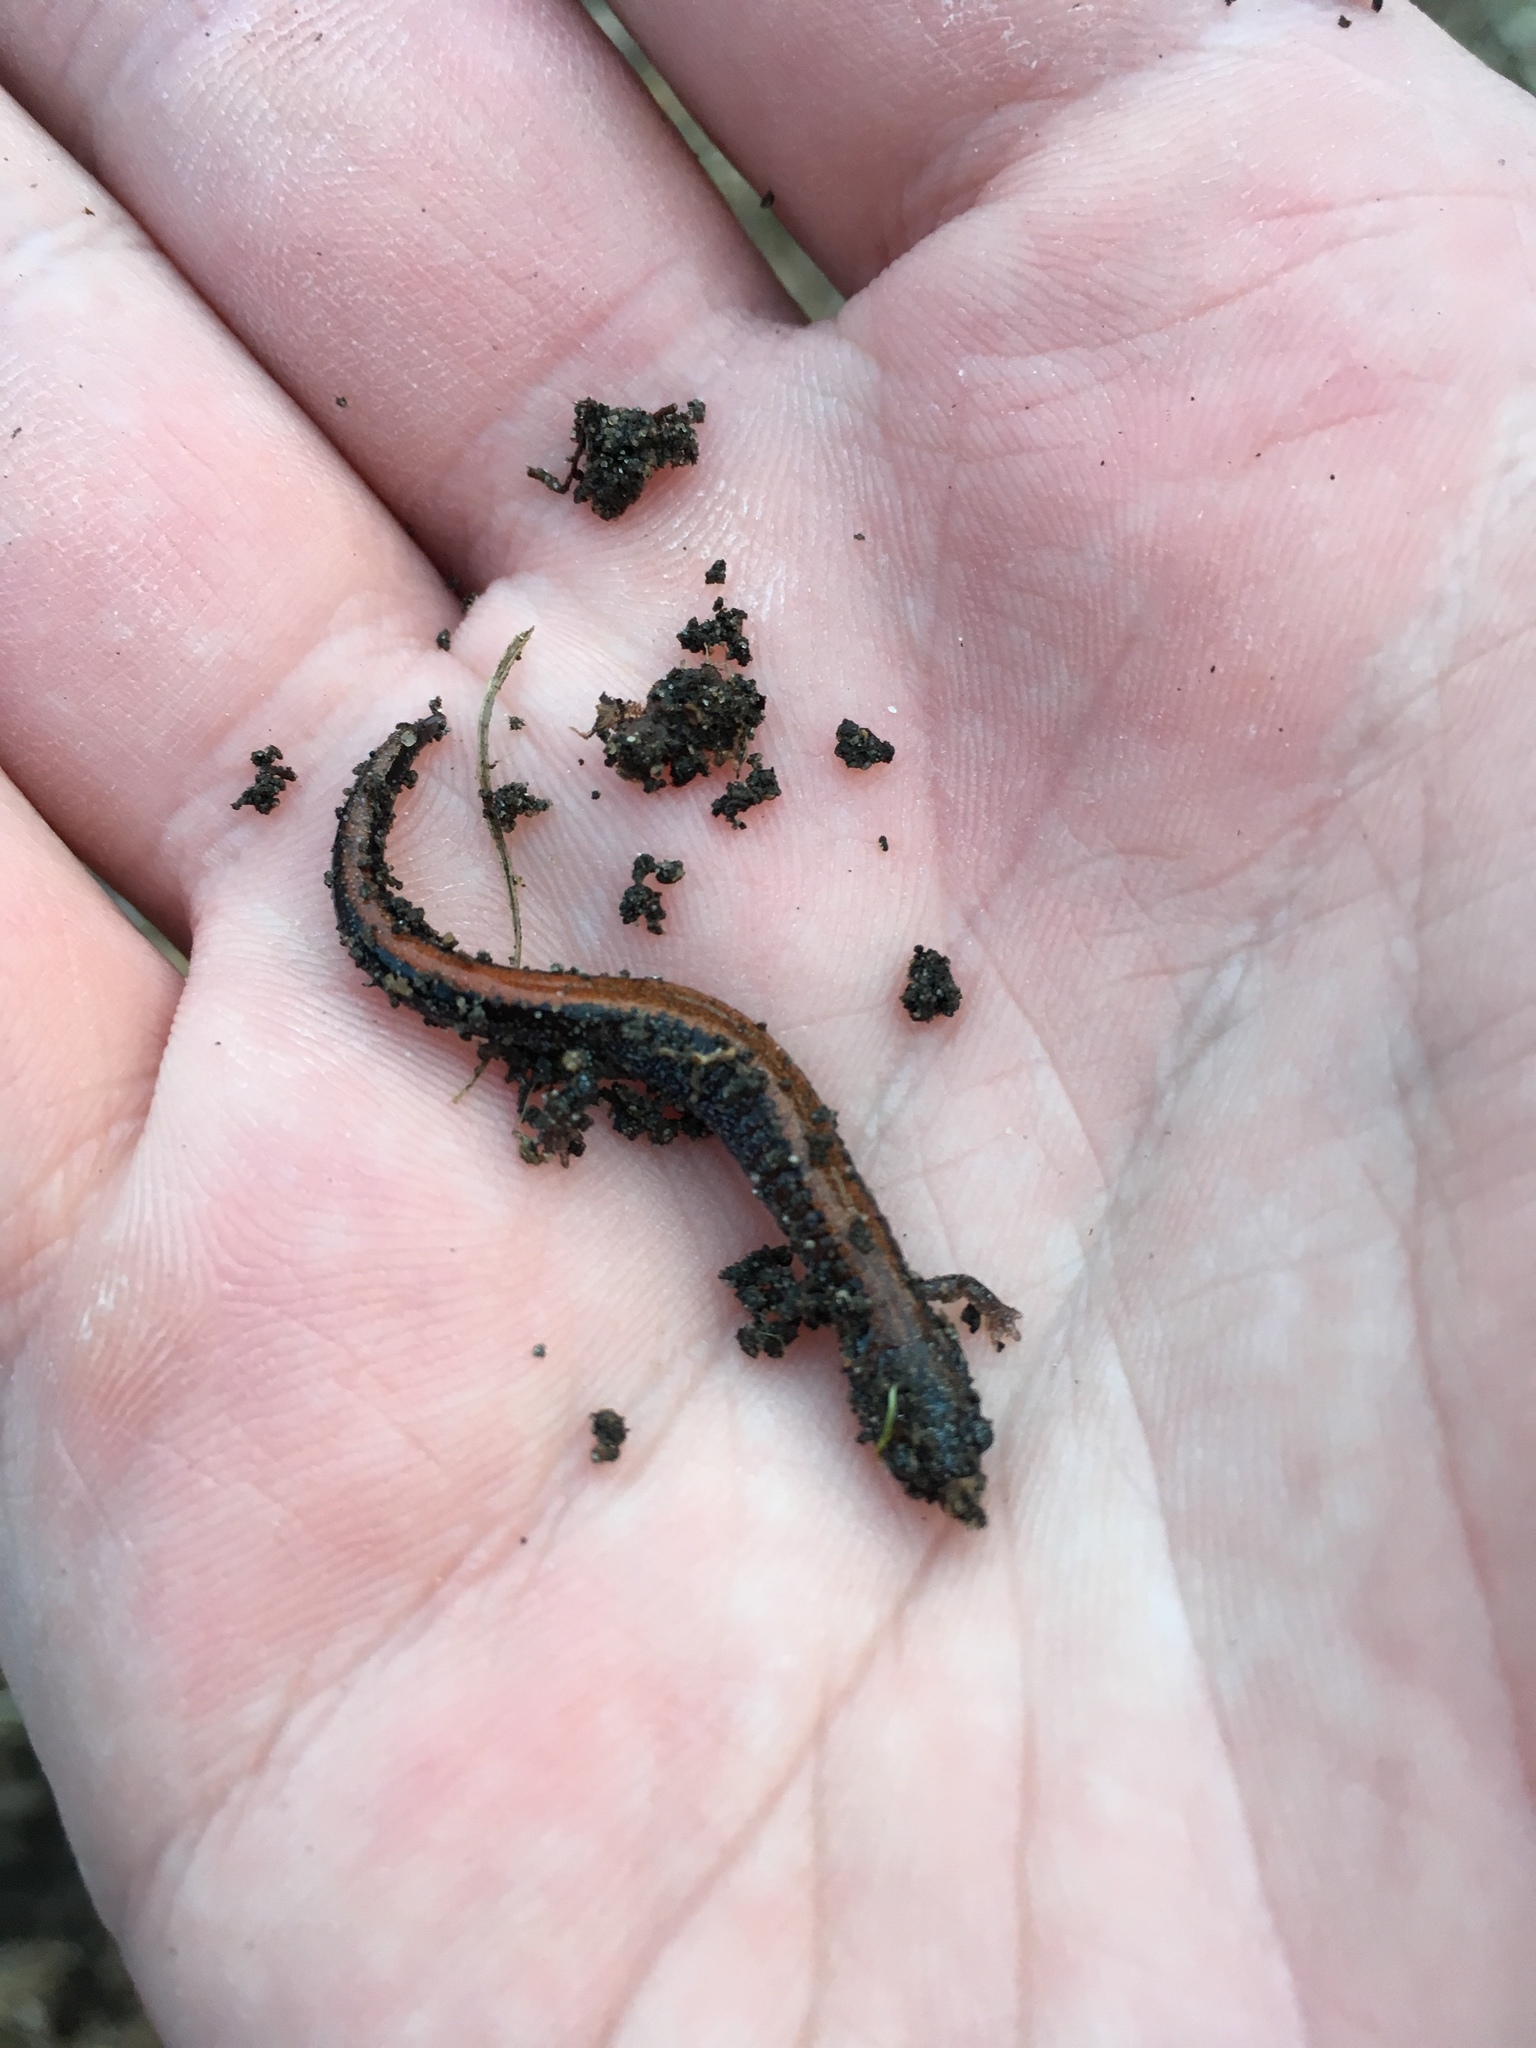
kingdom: Animalia
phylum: Chordata
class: Amphibia
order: Caudata
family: Plethodontidae
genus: Plethodon
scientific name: Plethodon cinereus
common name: Redback salamander
